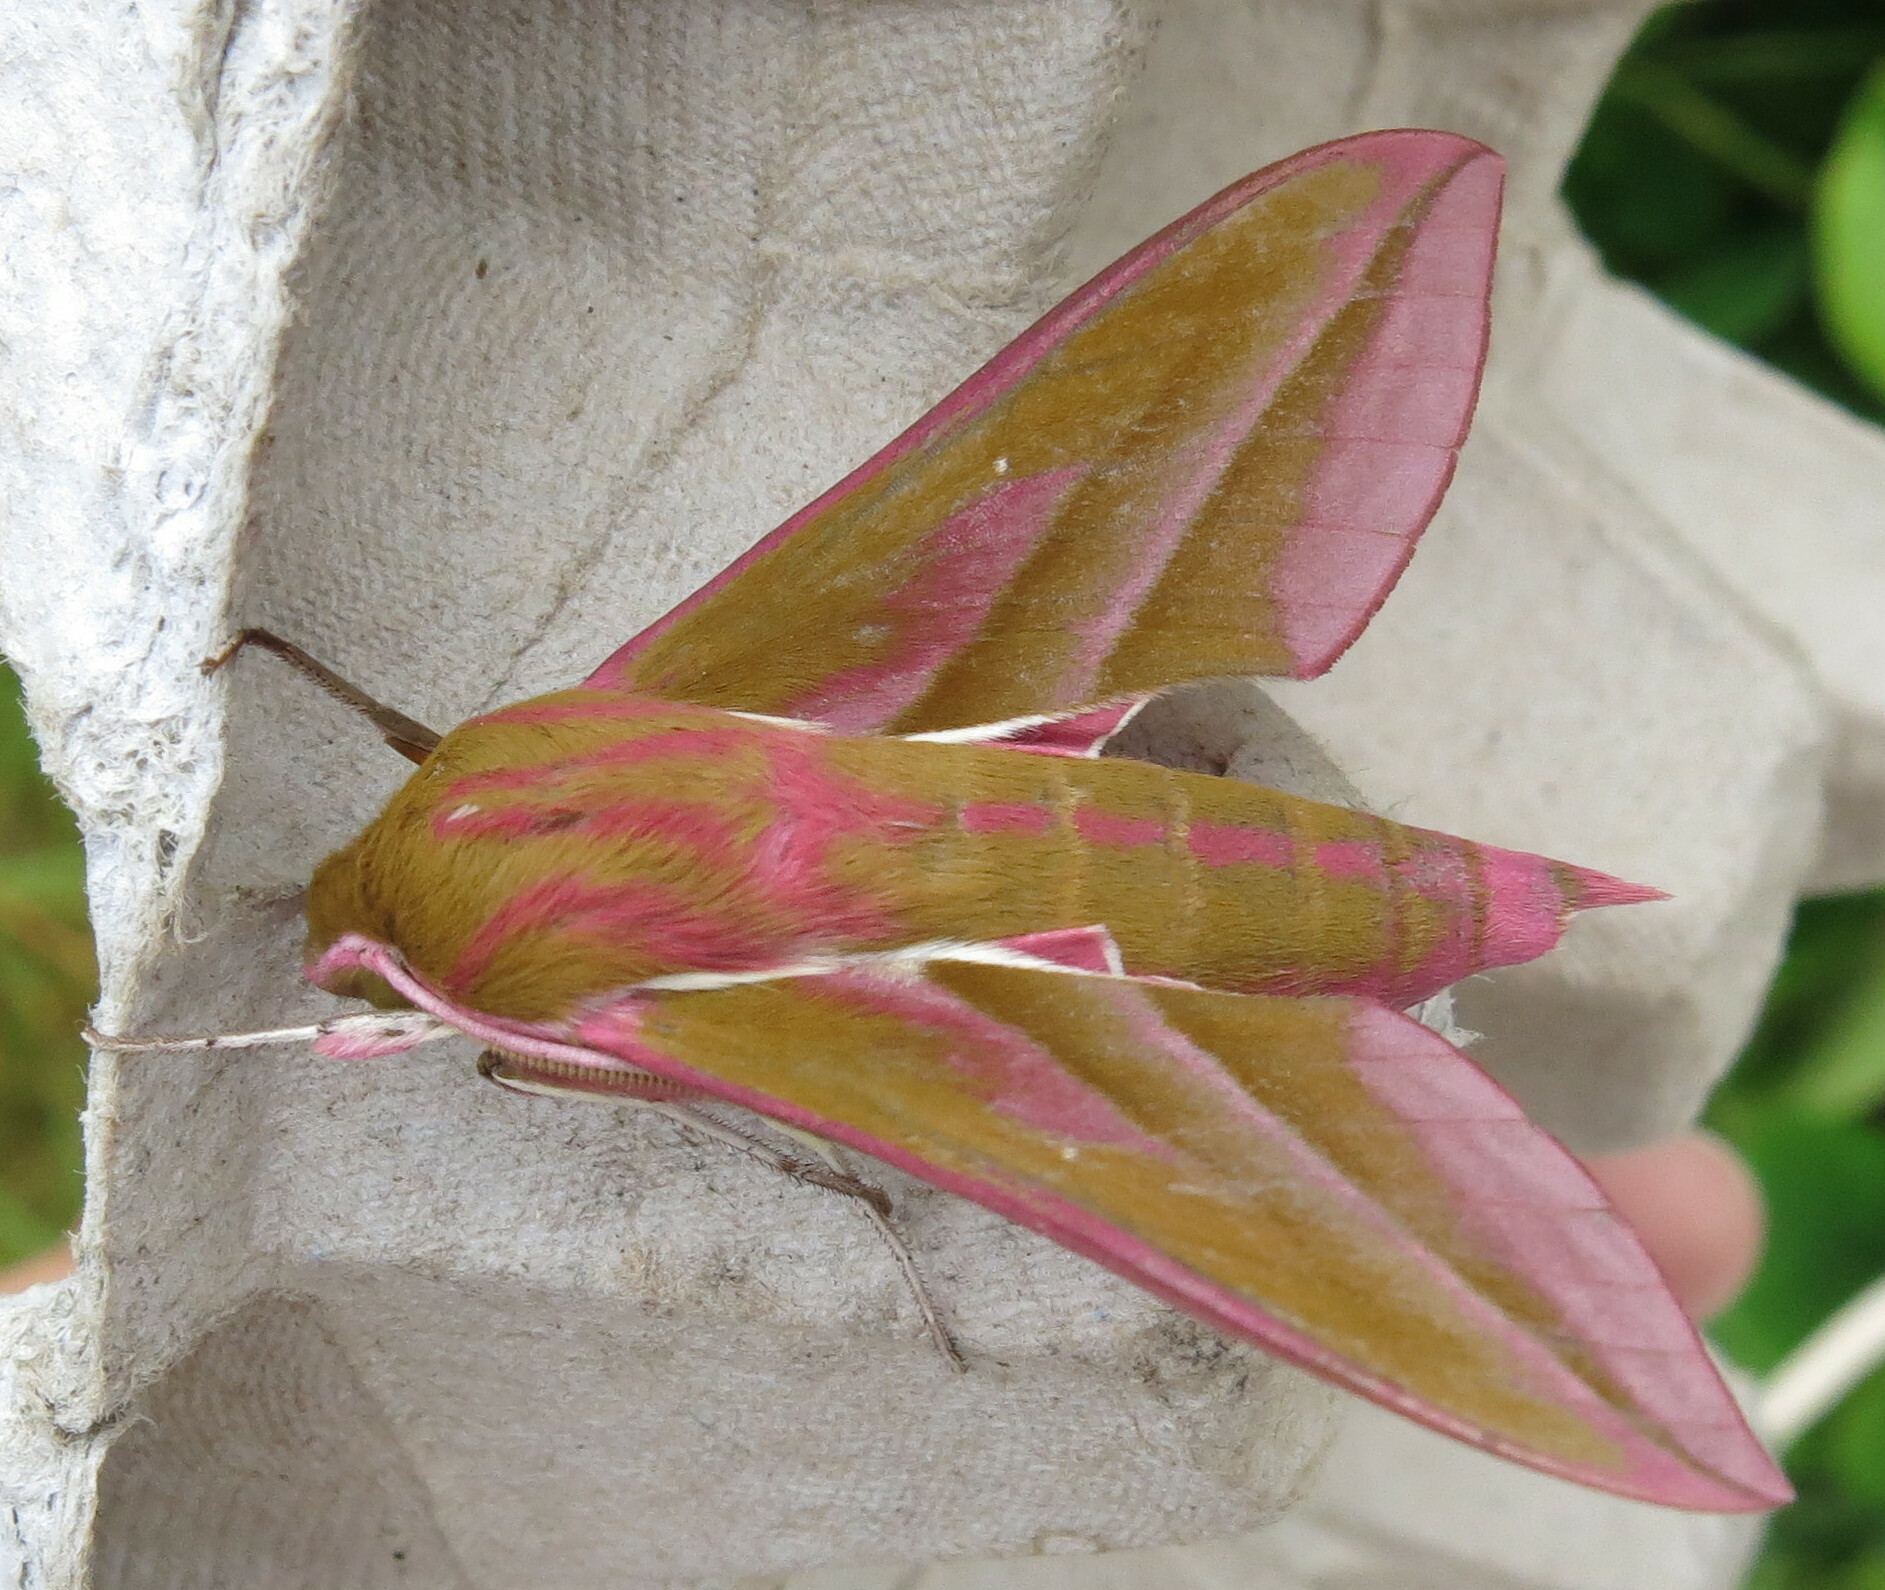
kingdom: Animalia
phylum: Arthropoda
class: Insecta
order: Lepidoptera
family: Sphingidae
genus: Deilephila
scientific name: Deilephila elpenor
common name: Elephant hawk-moth
